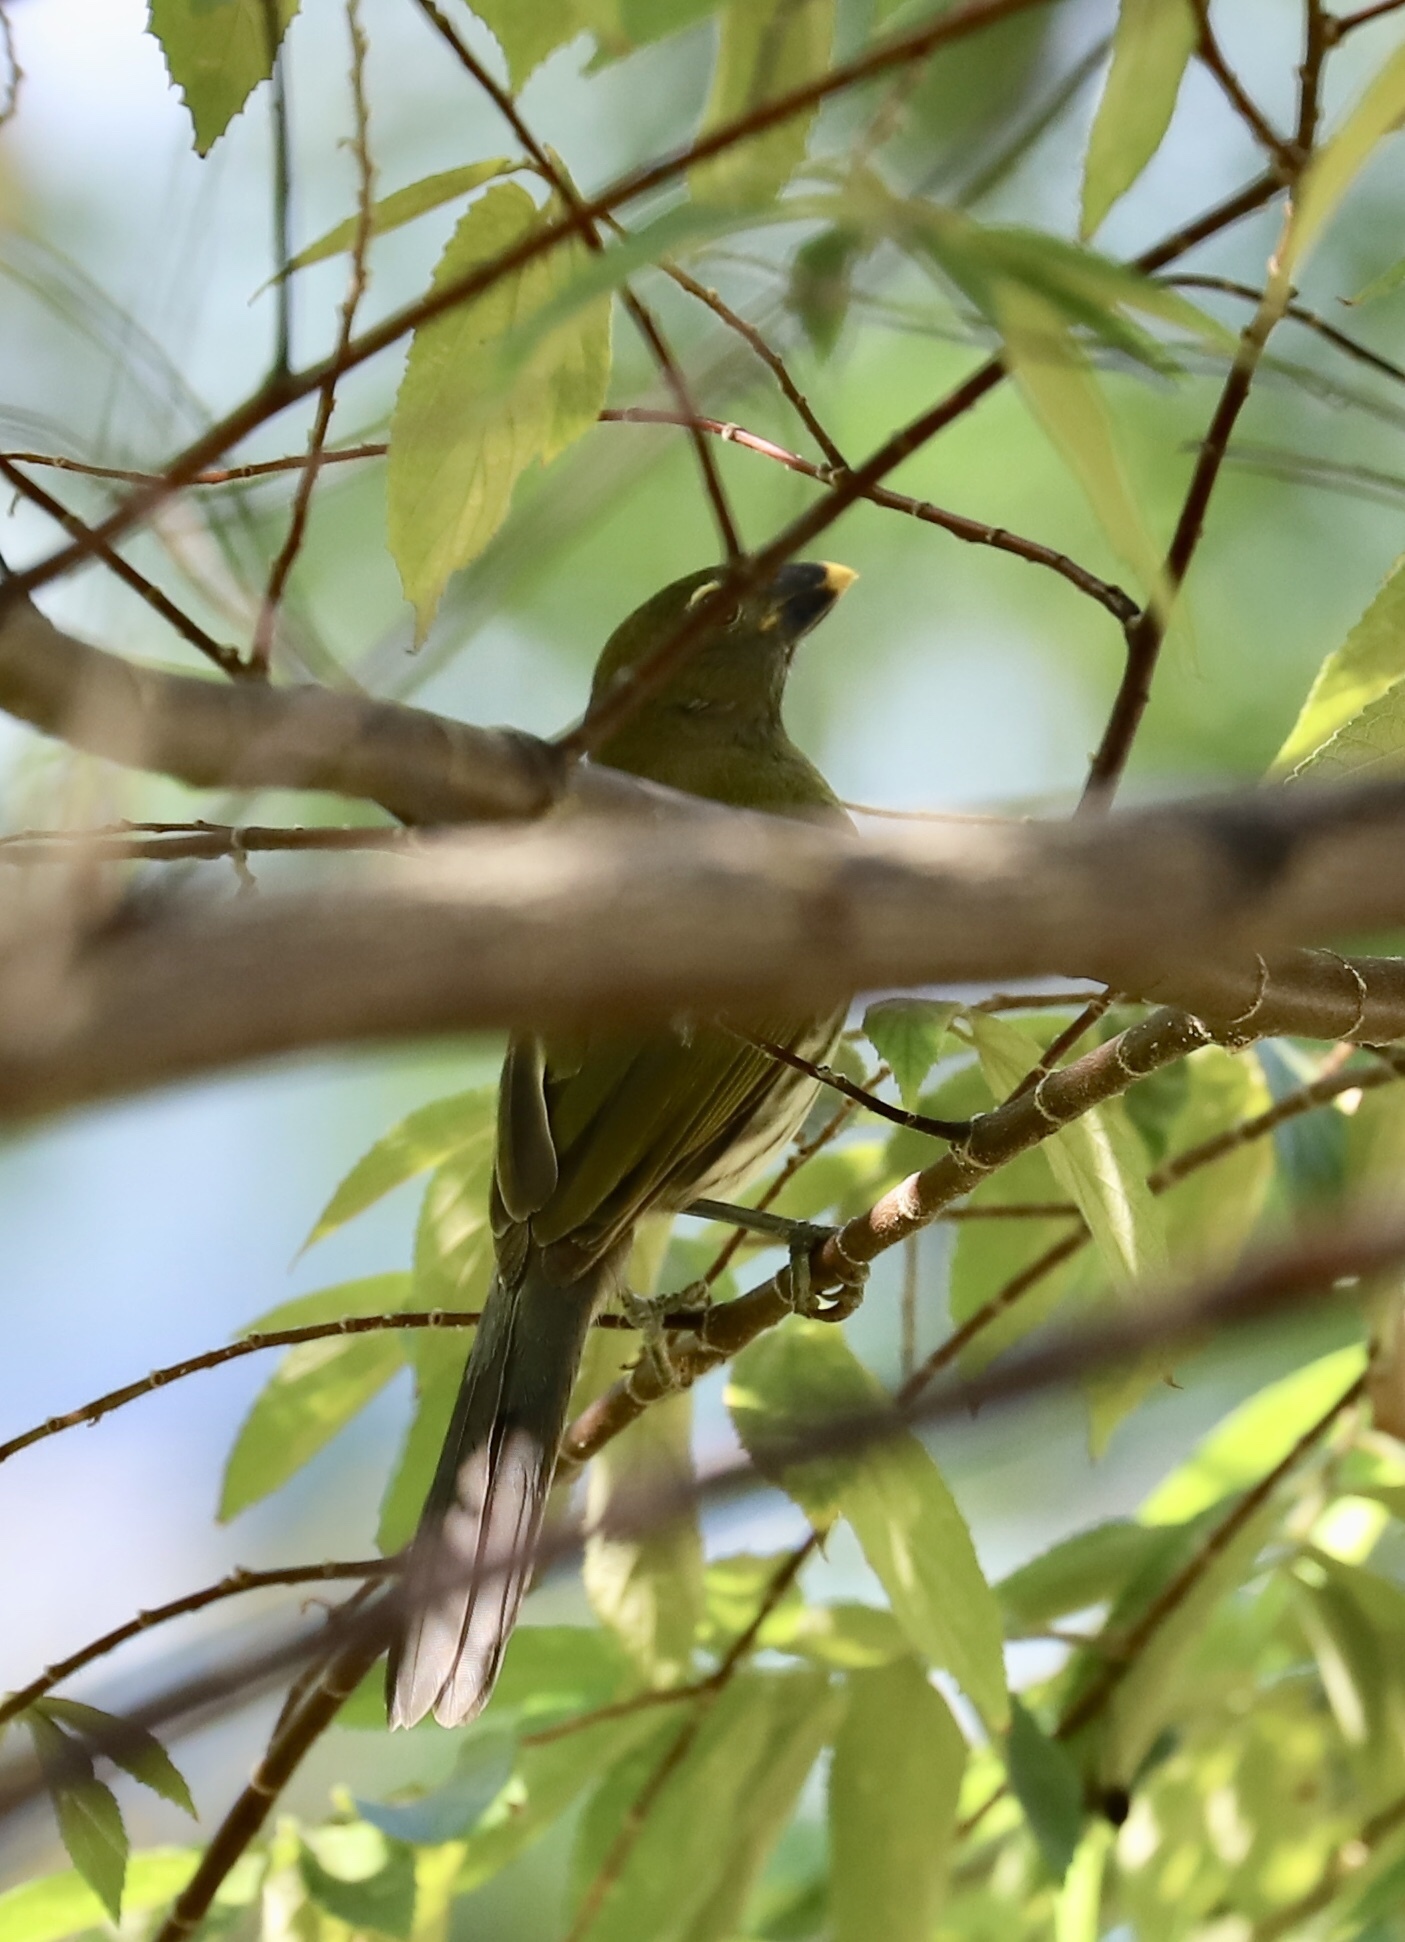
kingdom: Animalia
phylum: Chordata
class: Aves
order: Passeriformes
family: Thraupidae
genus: Saltator
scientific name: Saltator striatipectus
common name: Streaked saltator
